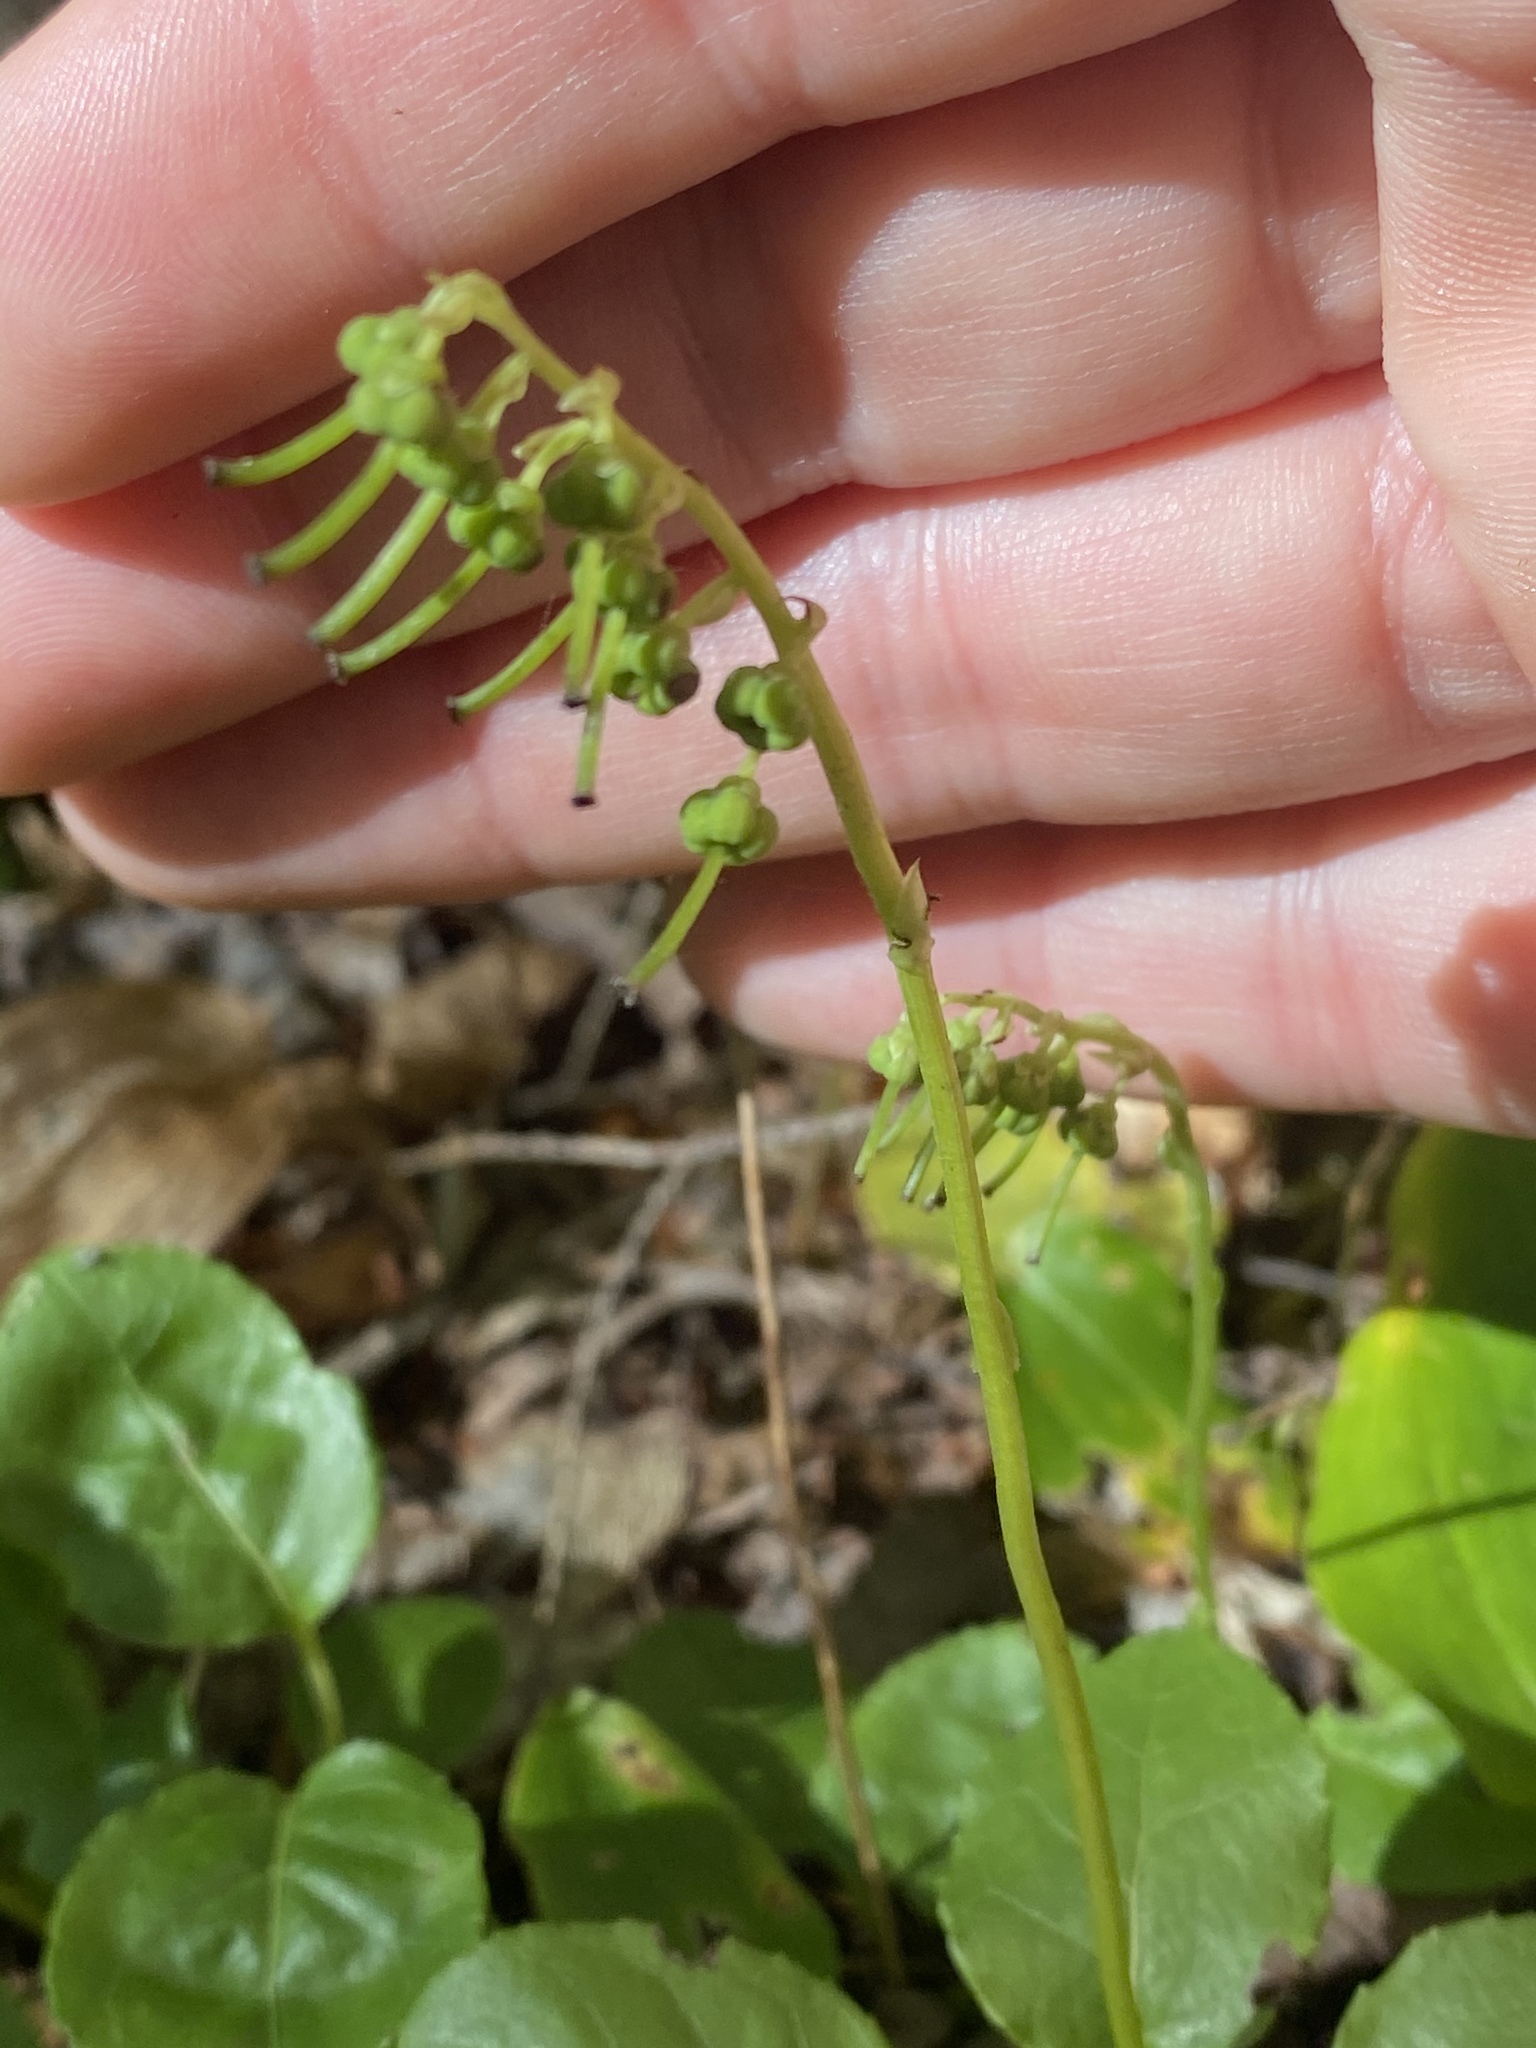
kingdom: Plantae
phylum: Tracheophyta
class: Magnoliopsida
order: Ericales
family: Ericaceae
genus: Orthilia
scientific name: Orthilia secunda
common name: One-sided orthilia
